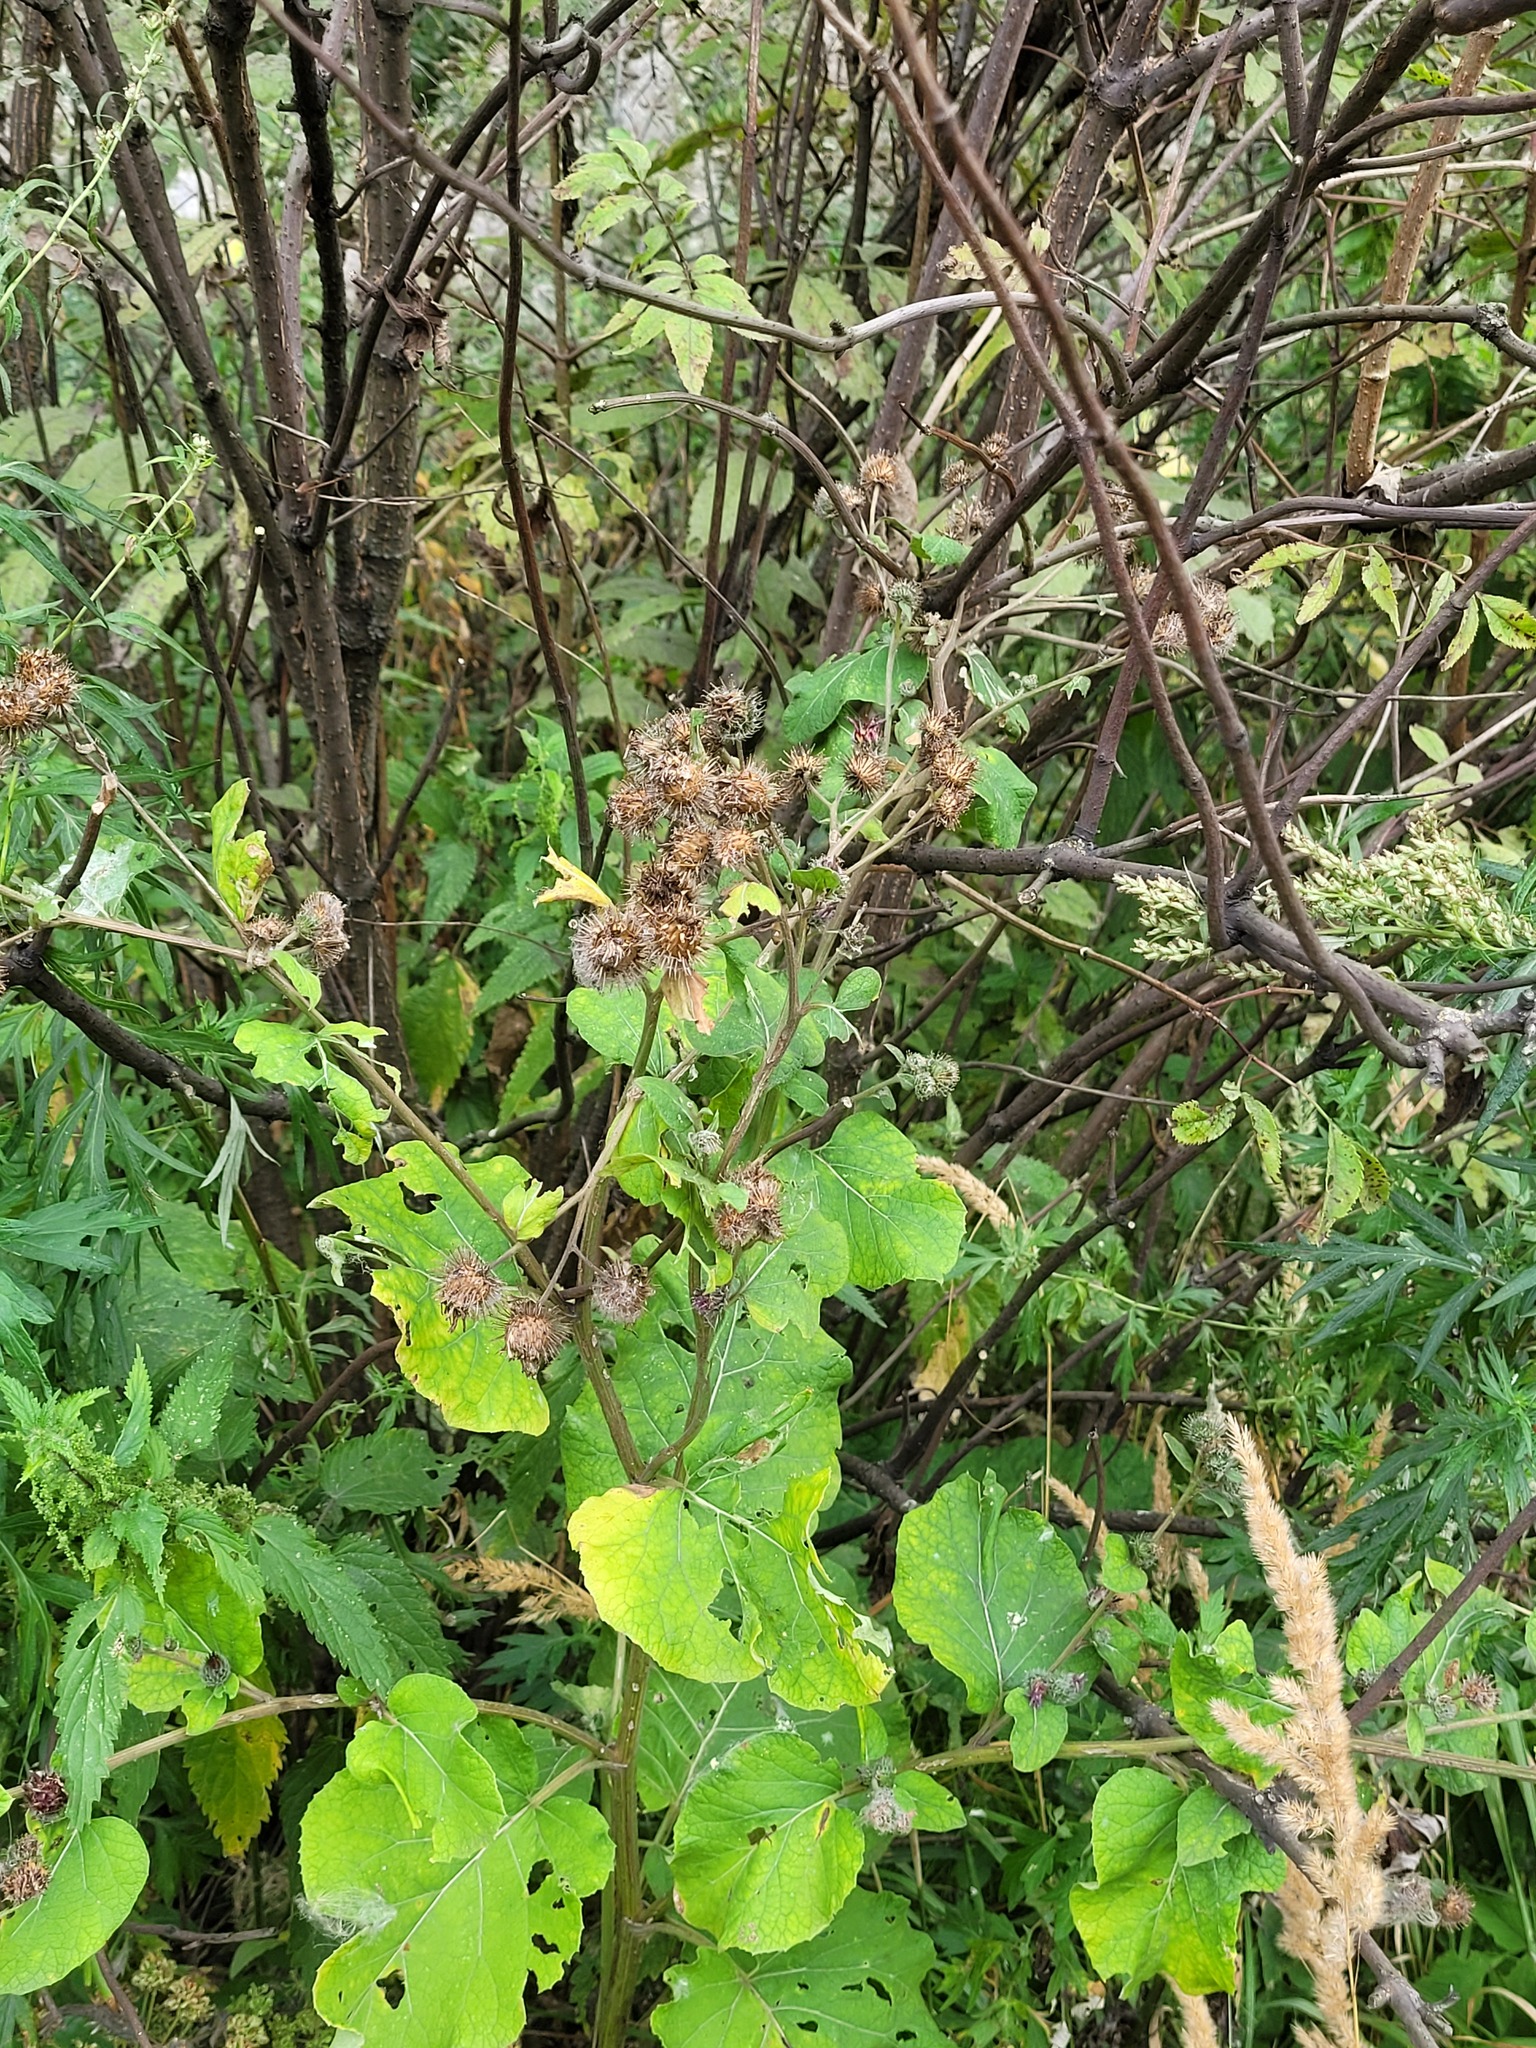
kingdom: Plantae
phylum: Tracheophyta
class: Magnoliopsida
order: Asterales
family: Asteraceae
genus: Arctium
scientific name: Arctium tomentosum
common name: Woolly burdock
